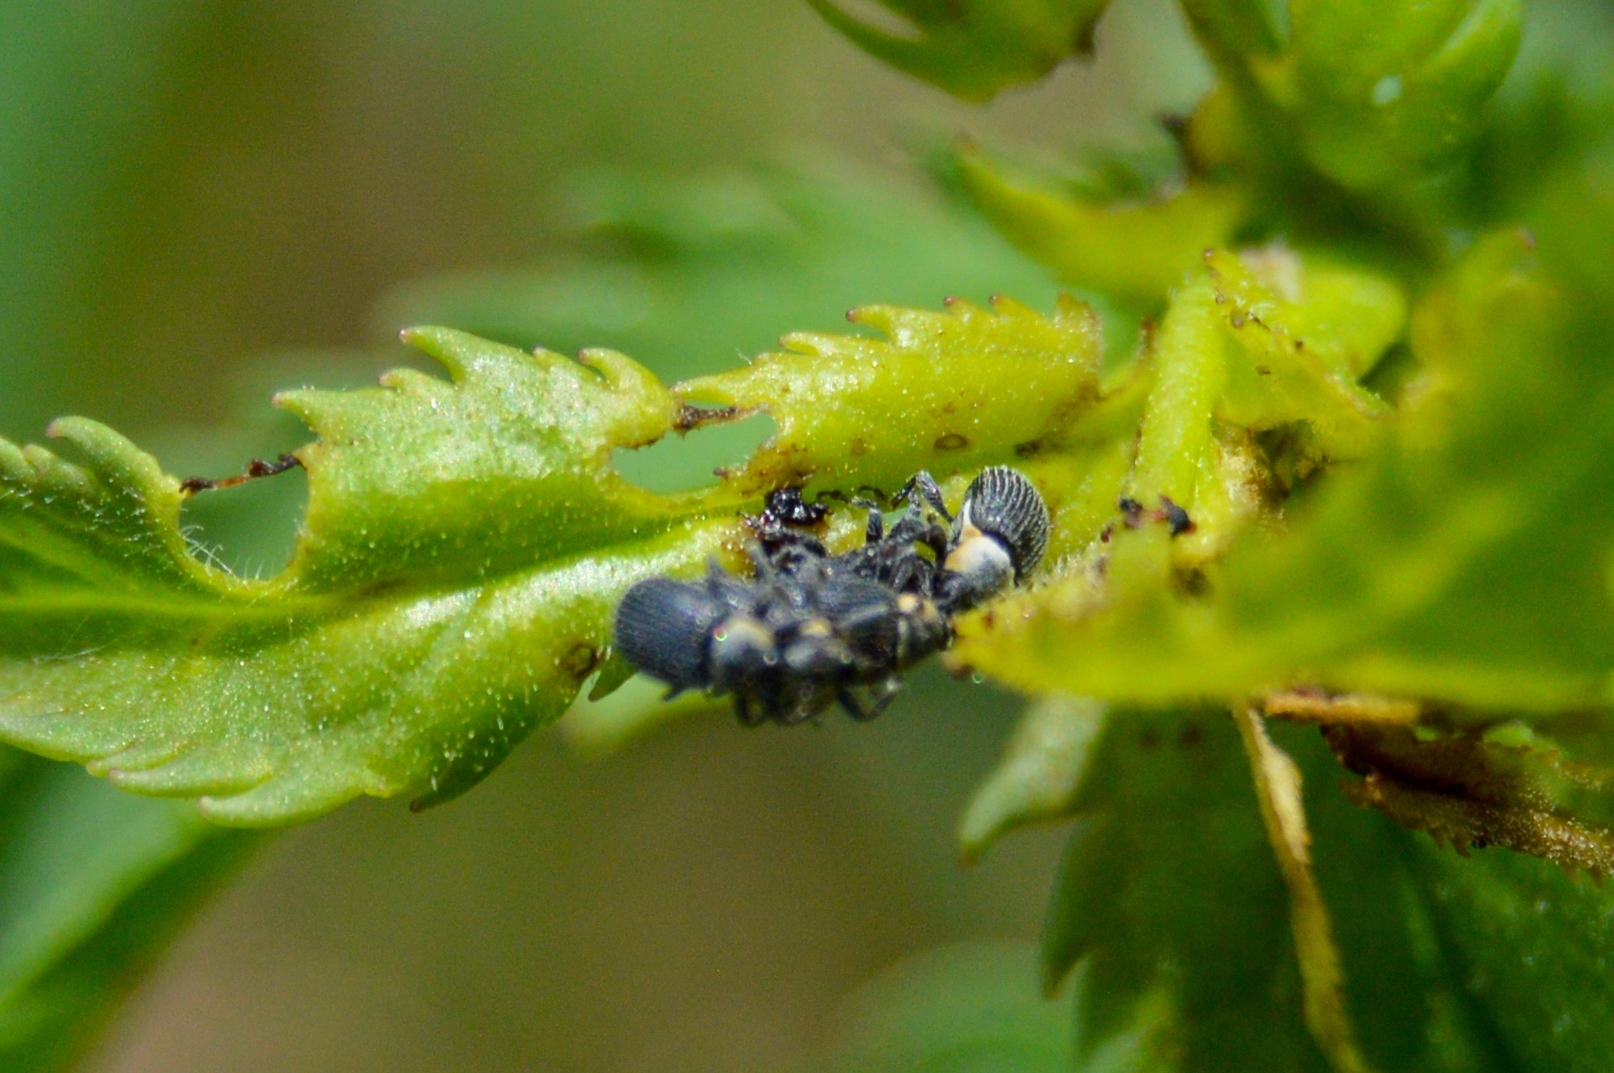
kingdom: Animalia
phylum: Arthropoda
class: Insecta
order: Coleoptera
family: Curculionidae
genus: Gymnetron
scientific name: Gymnetron terminassianae
